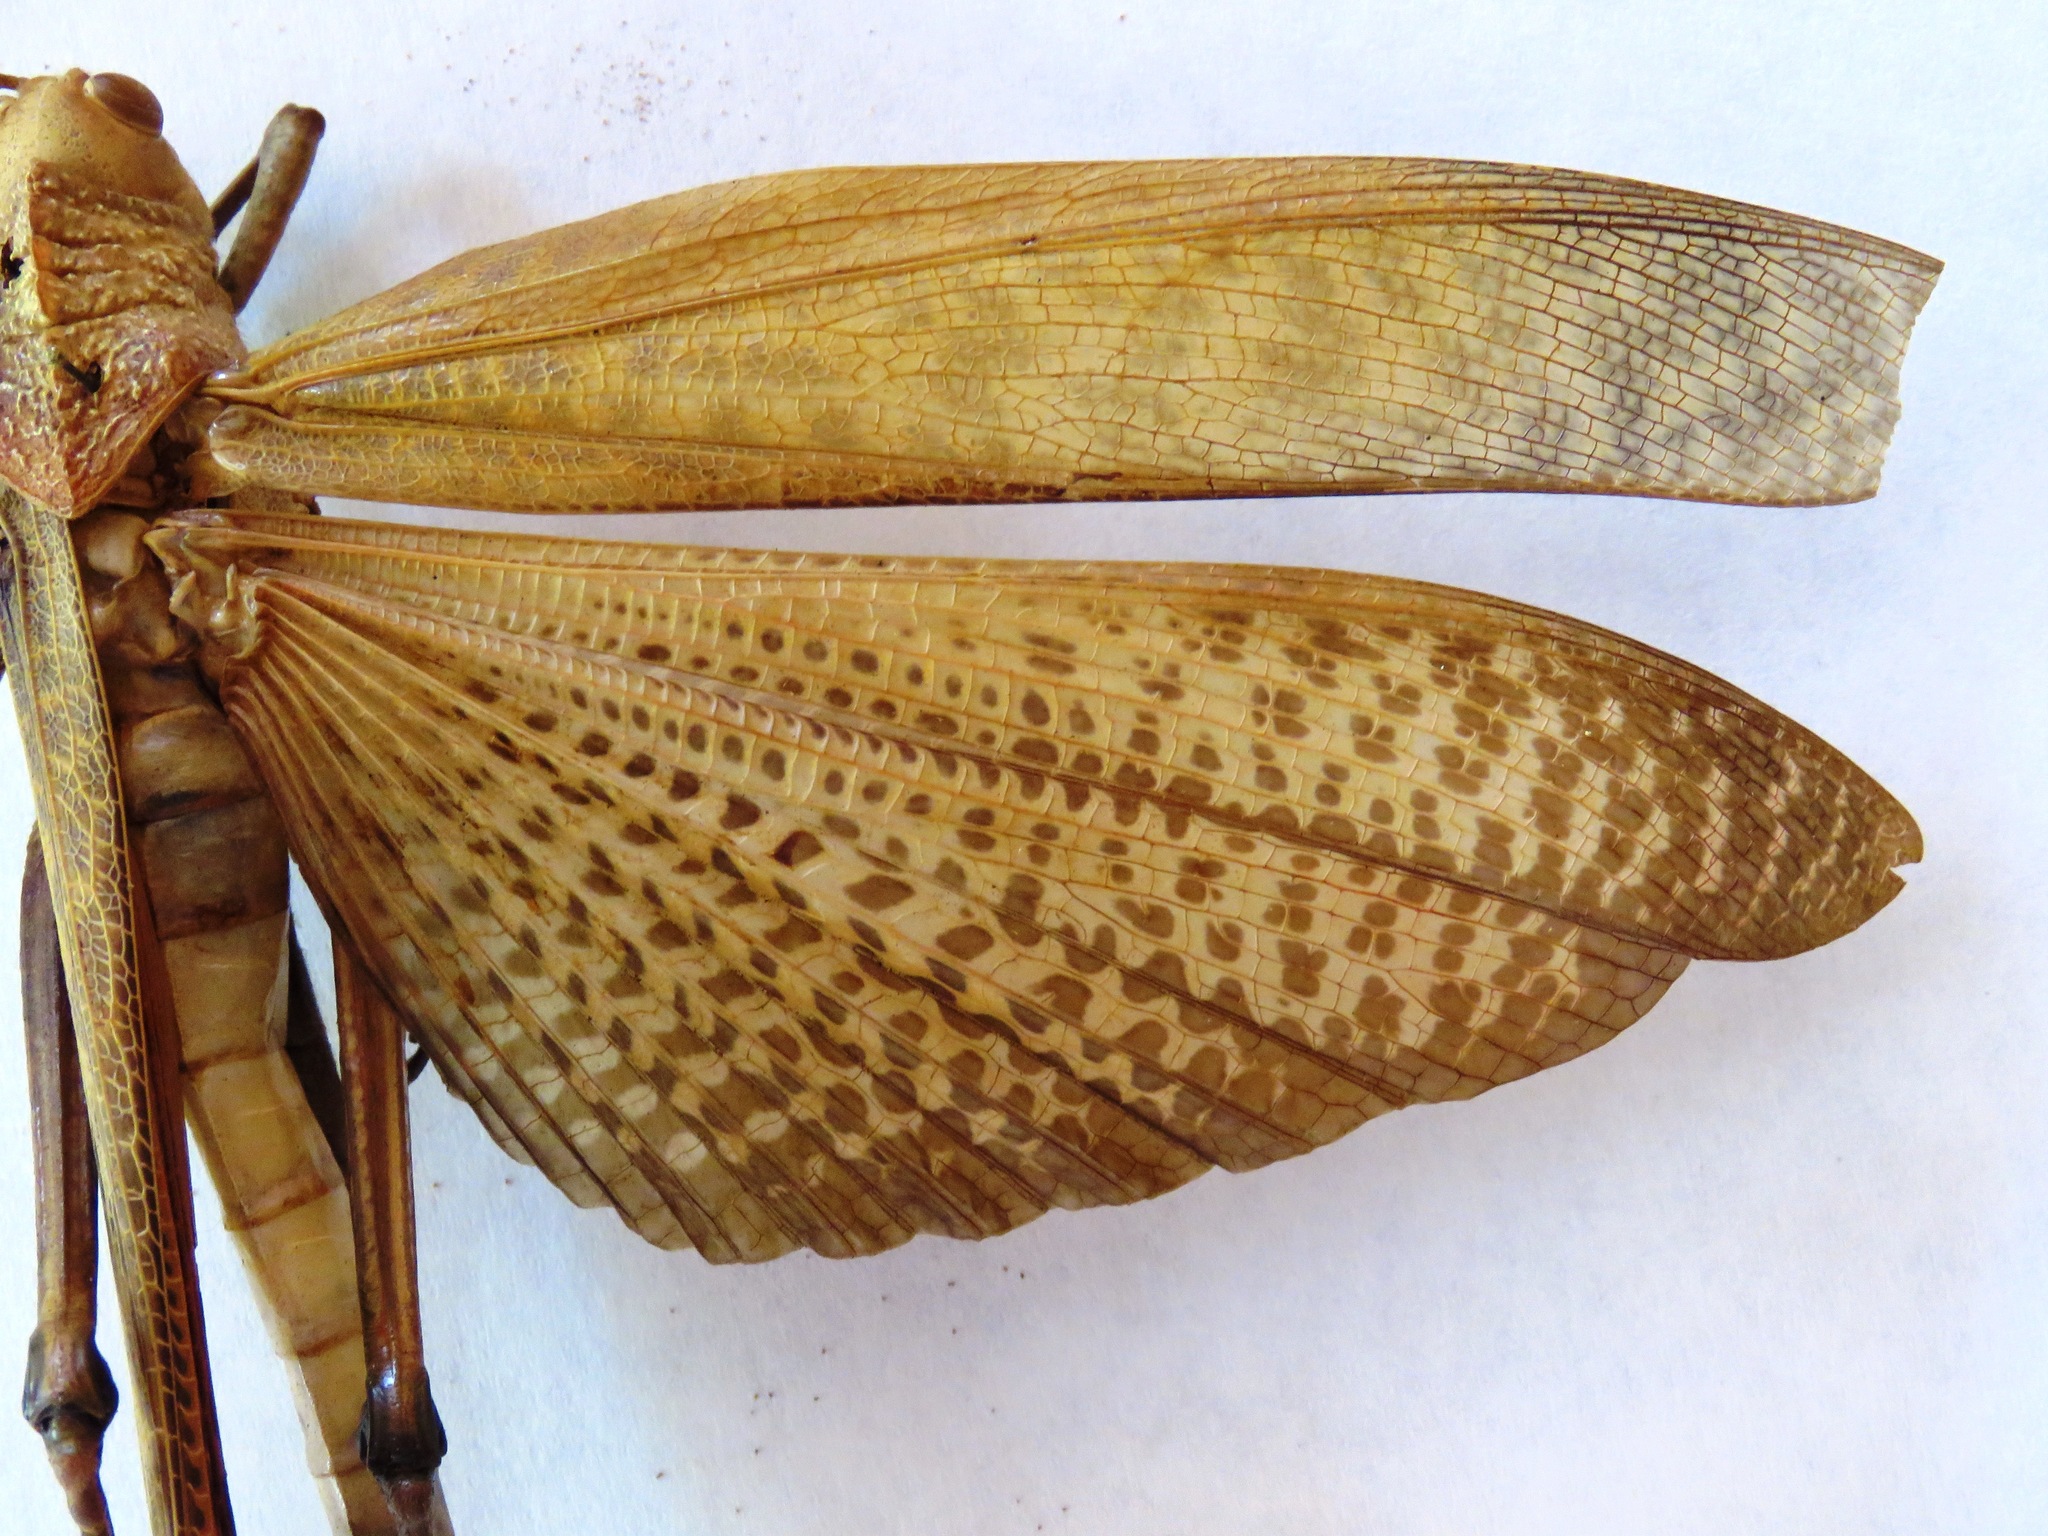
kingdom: Animalia
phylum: Arthropoda
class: Insecta
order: Orthoptera
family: Romaleidae
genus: Tropidacris
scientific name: Tropidacris cristata
